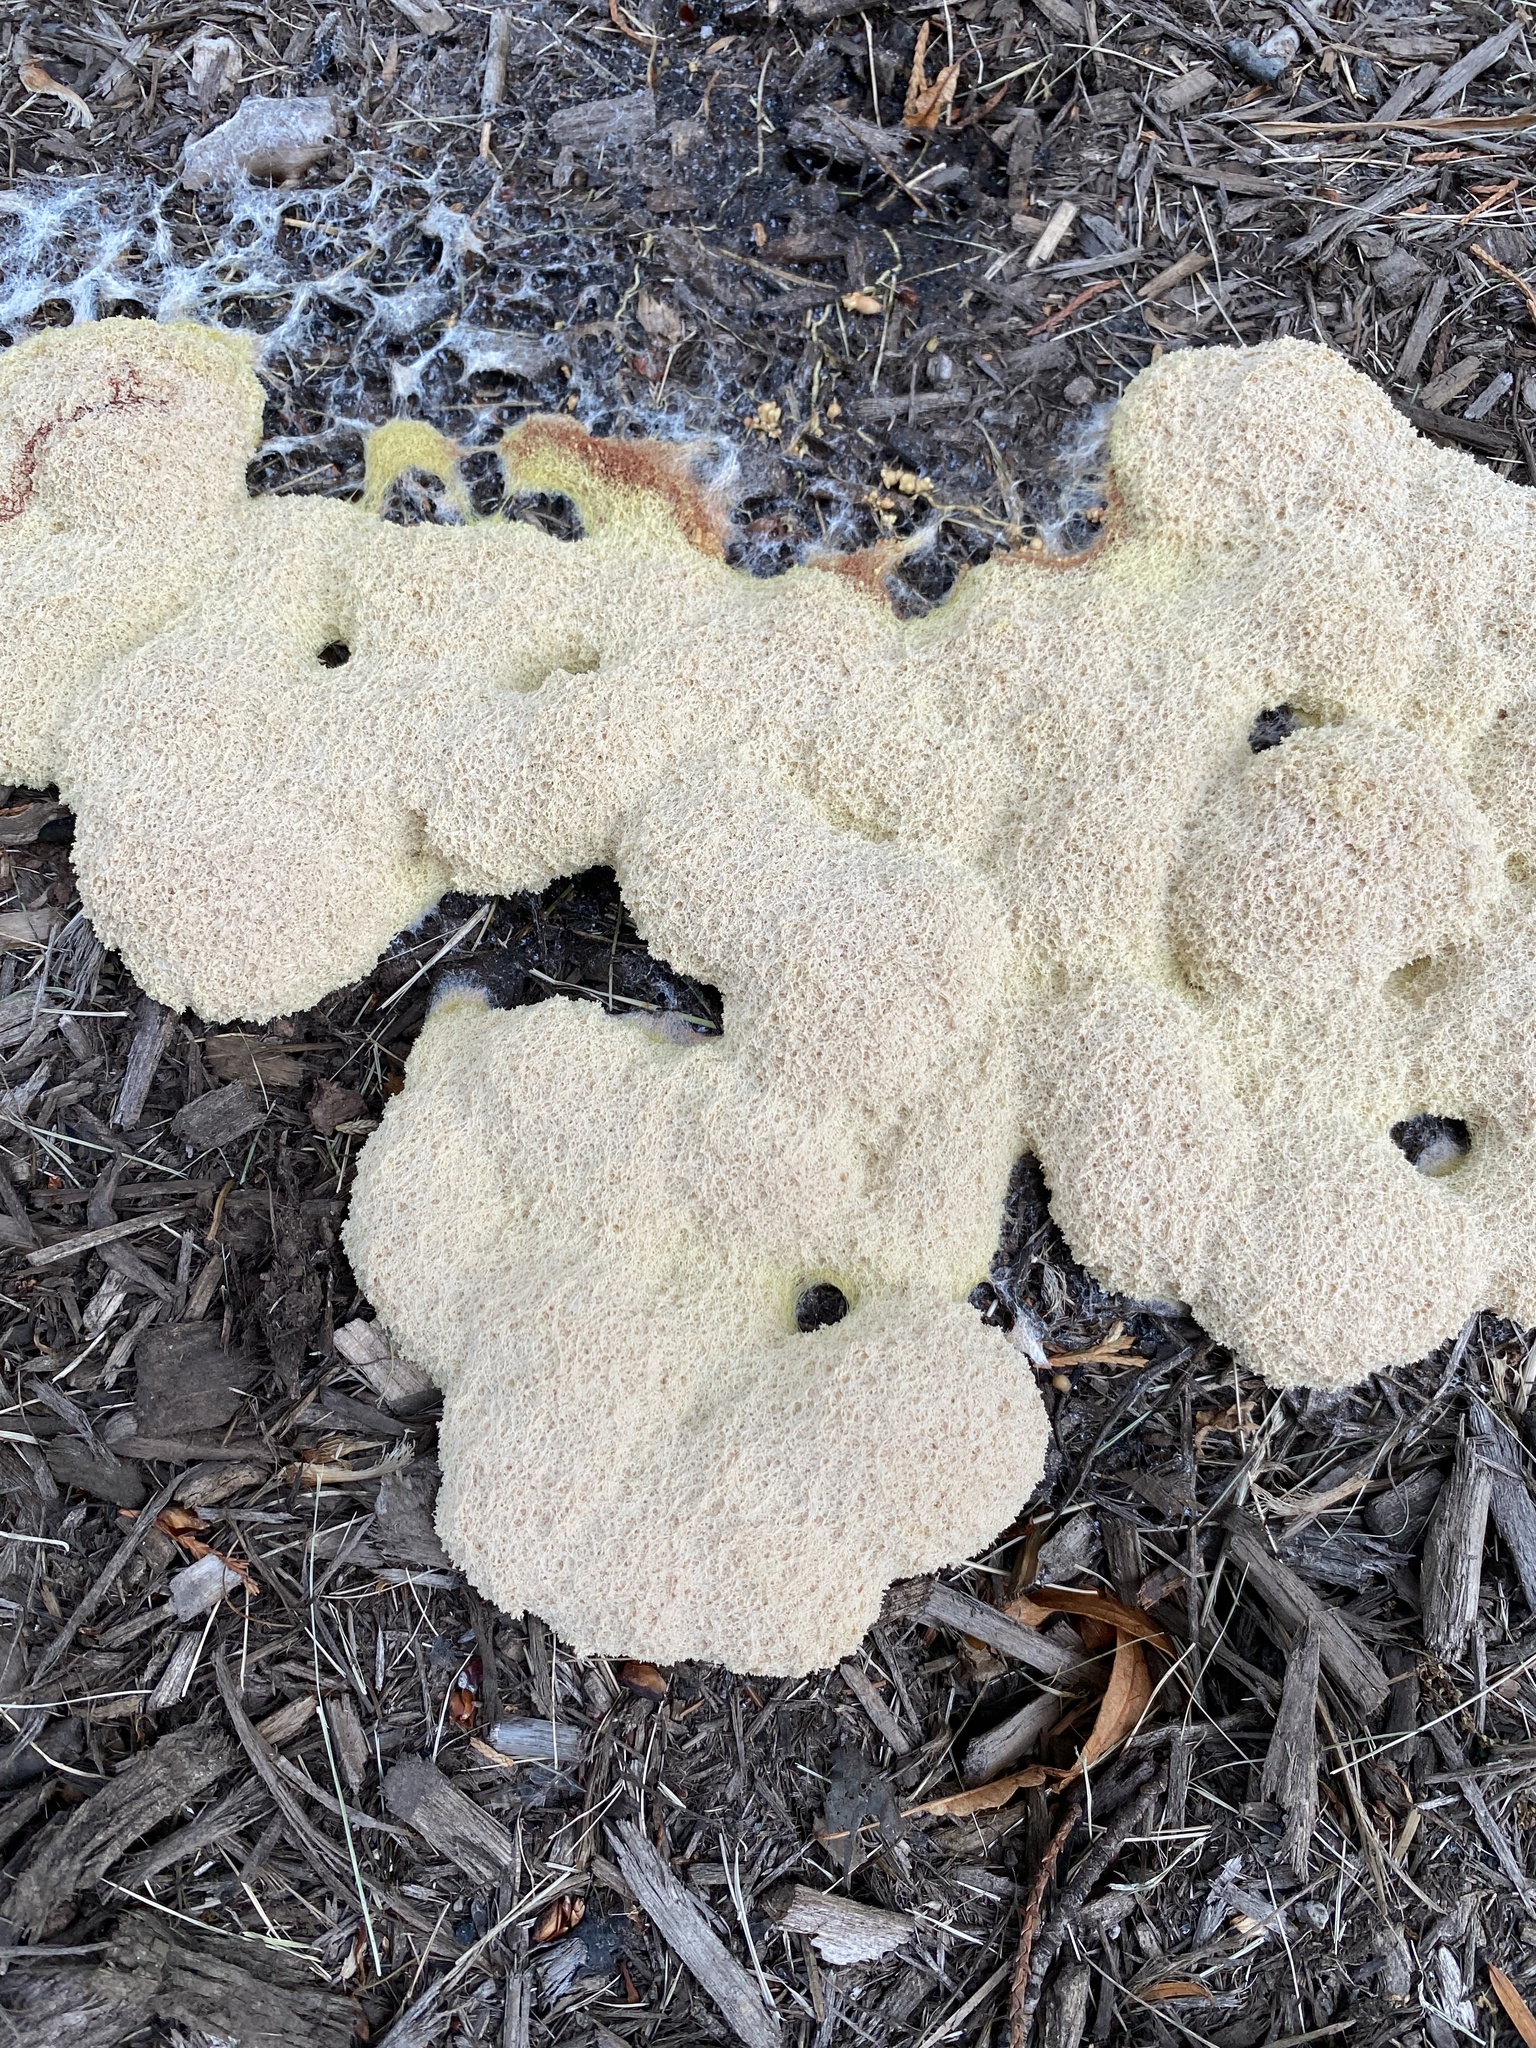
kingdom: Protozoa
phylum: Mycetozoa
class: Myxomycetes
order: Physarales
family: Physaraceae
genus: Fuligo
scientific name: Fuligo septica
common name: Dog vomit slime mold
